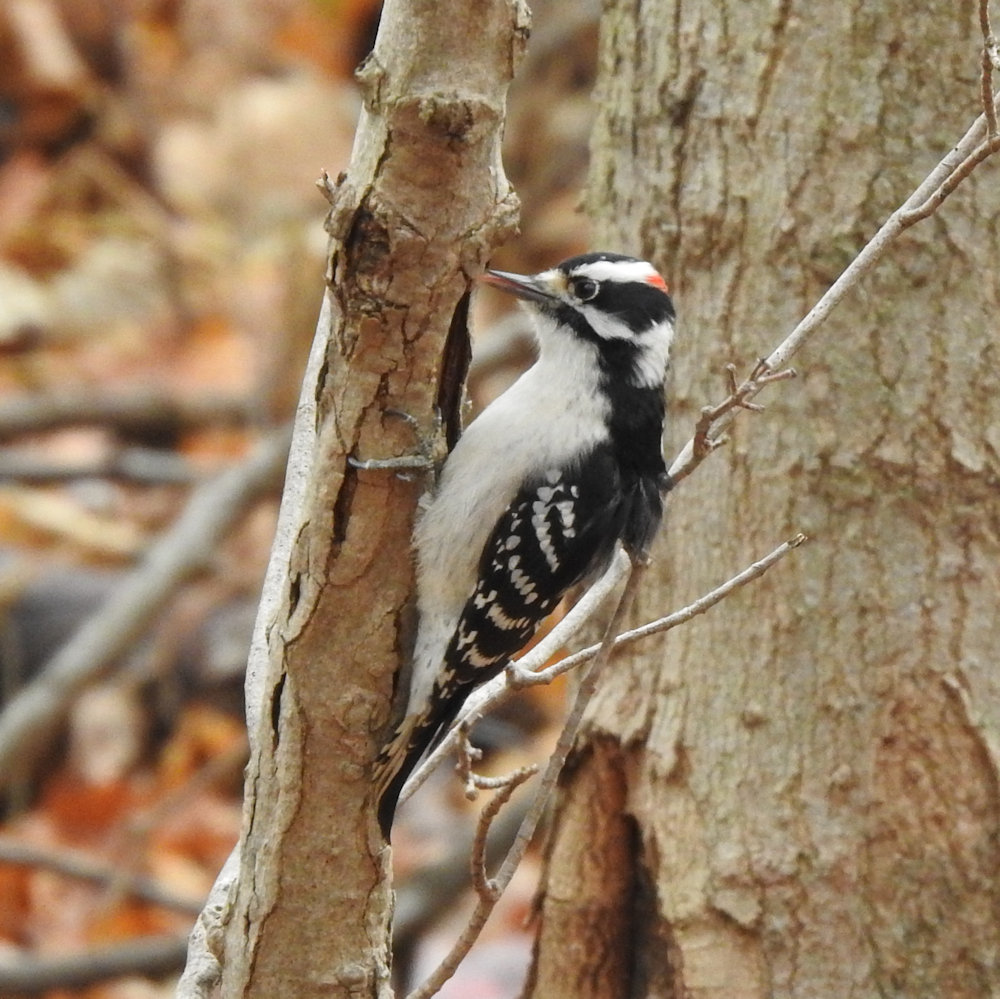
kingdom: Animalia
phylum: Chordata
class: Aves
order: Piciformes
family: Picidae
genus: Dryobates
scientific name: Dryobates pubescens
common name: Downy woodpecker
